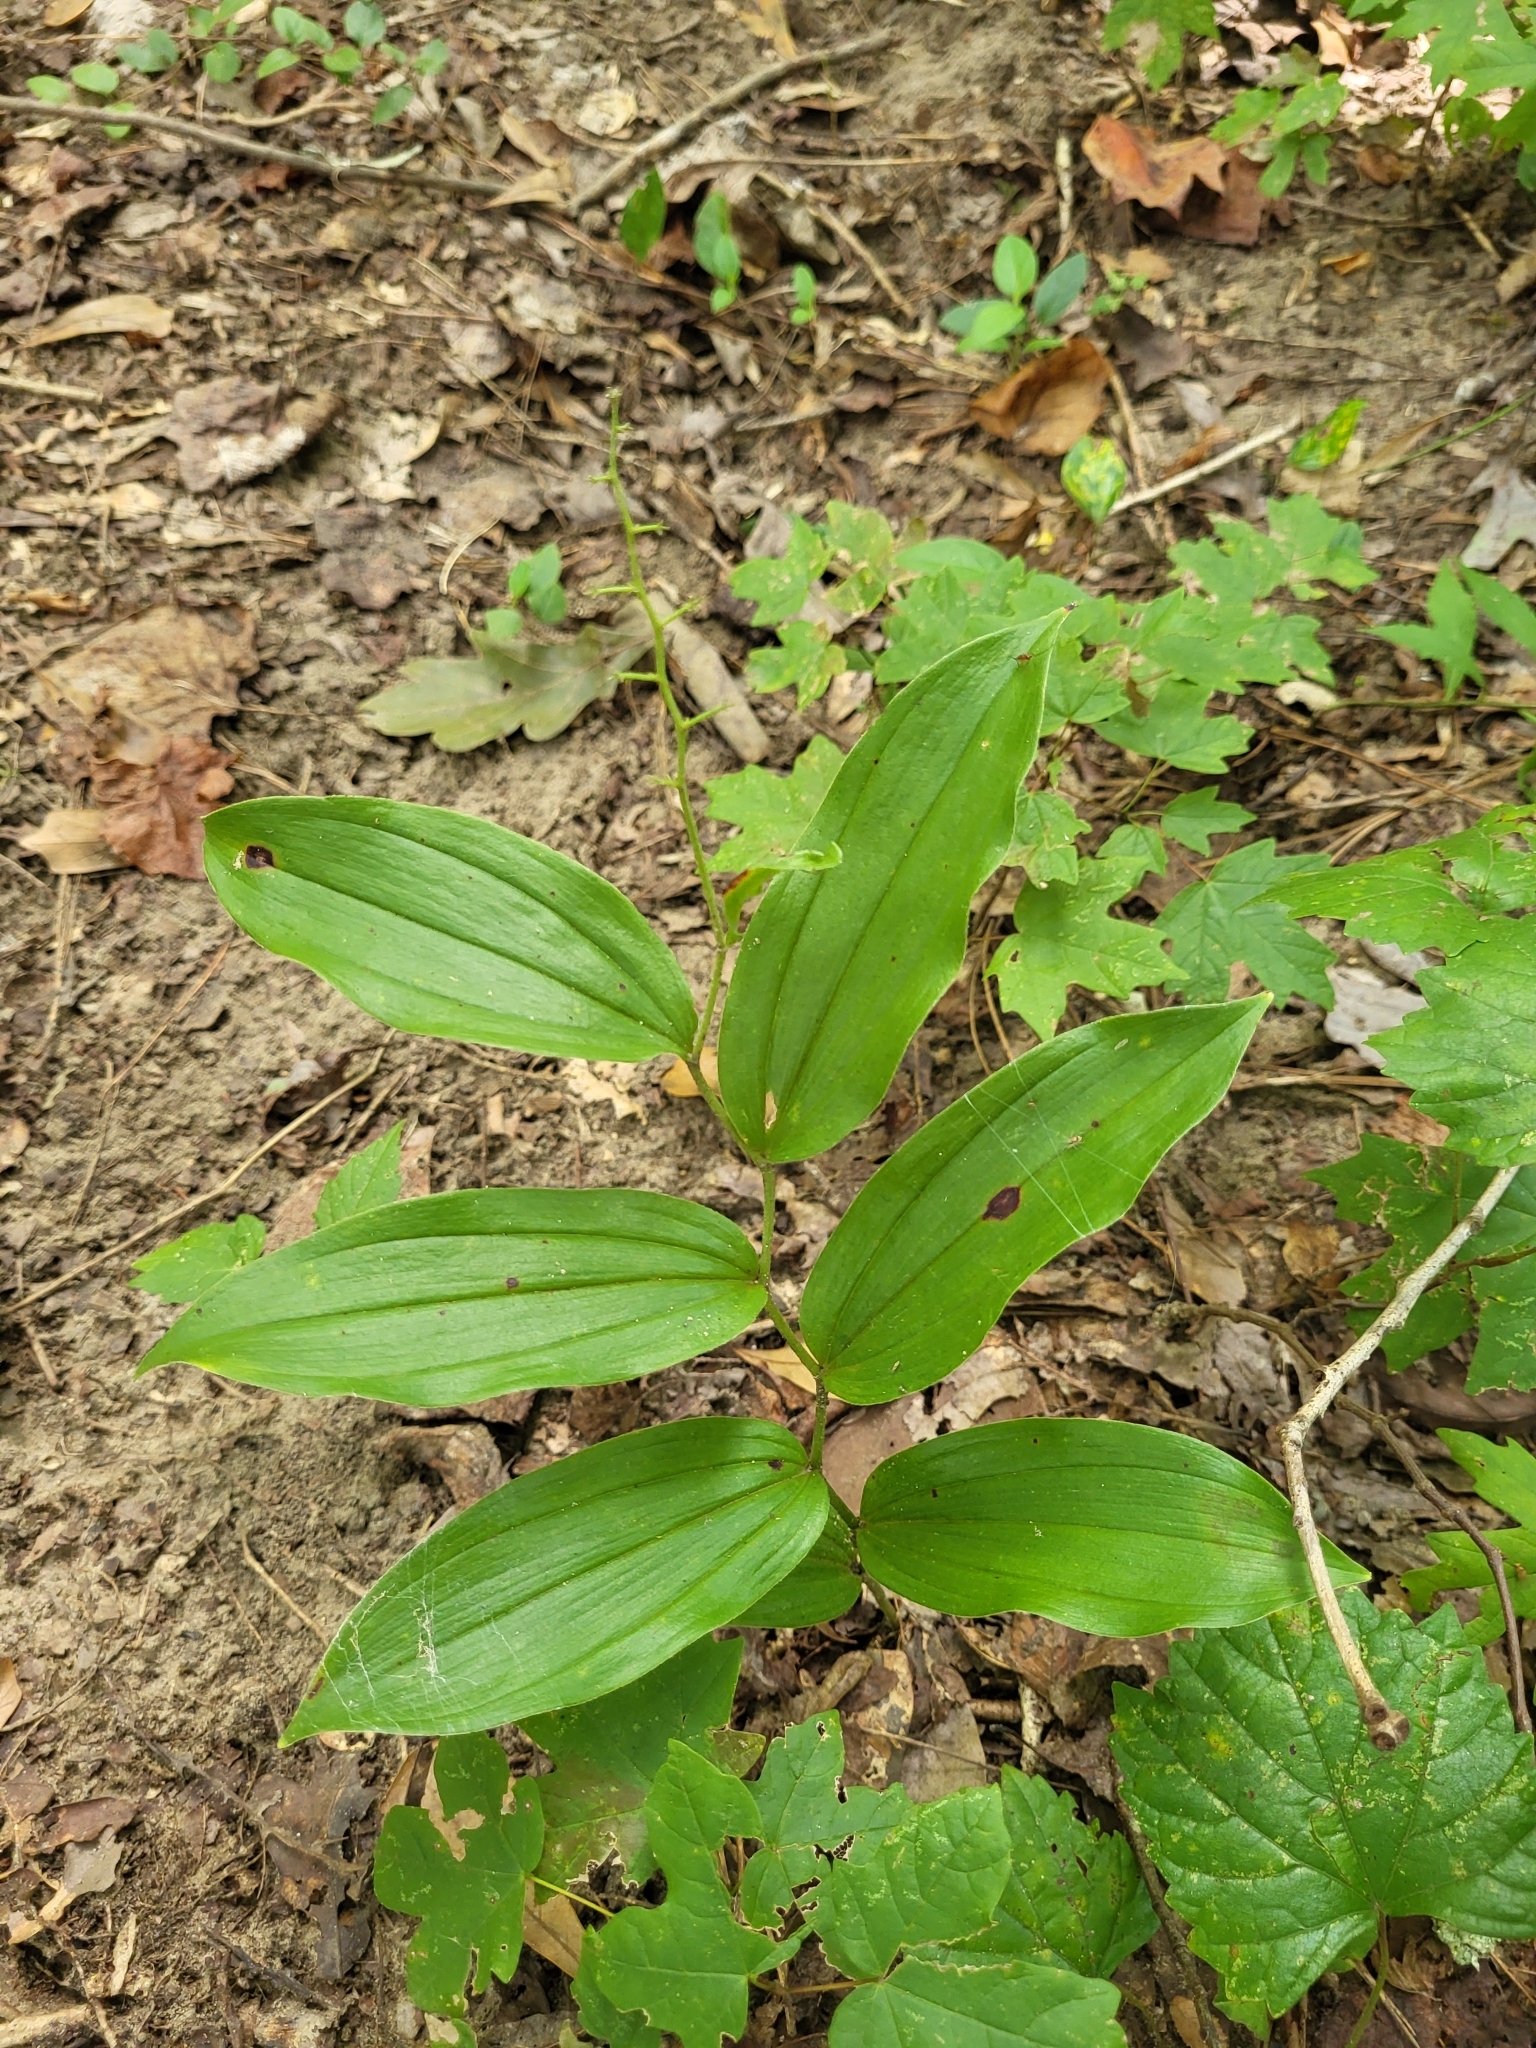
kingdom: Plantae
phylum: Tracheophyta
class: Liliopsida
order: Asparagales
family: Asparagaceae
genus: Maianthemum
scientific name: Maianthemum racemosum
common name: False spikenard
